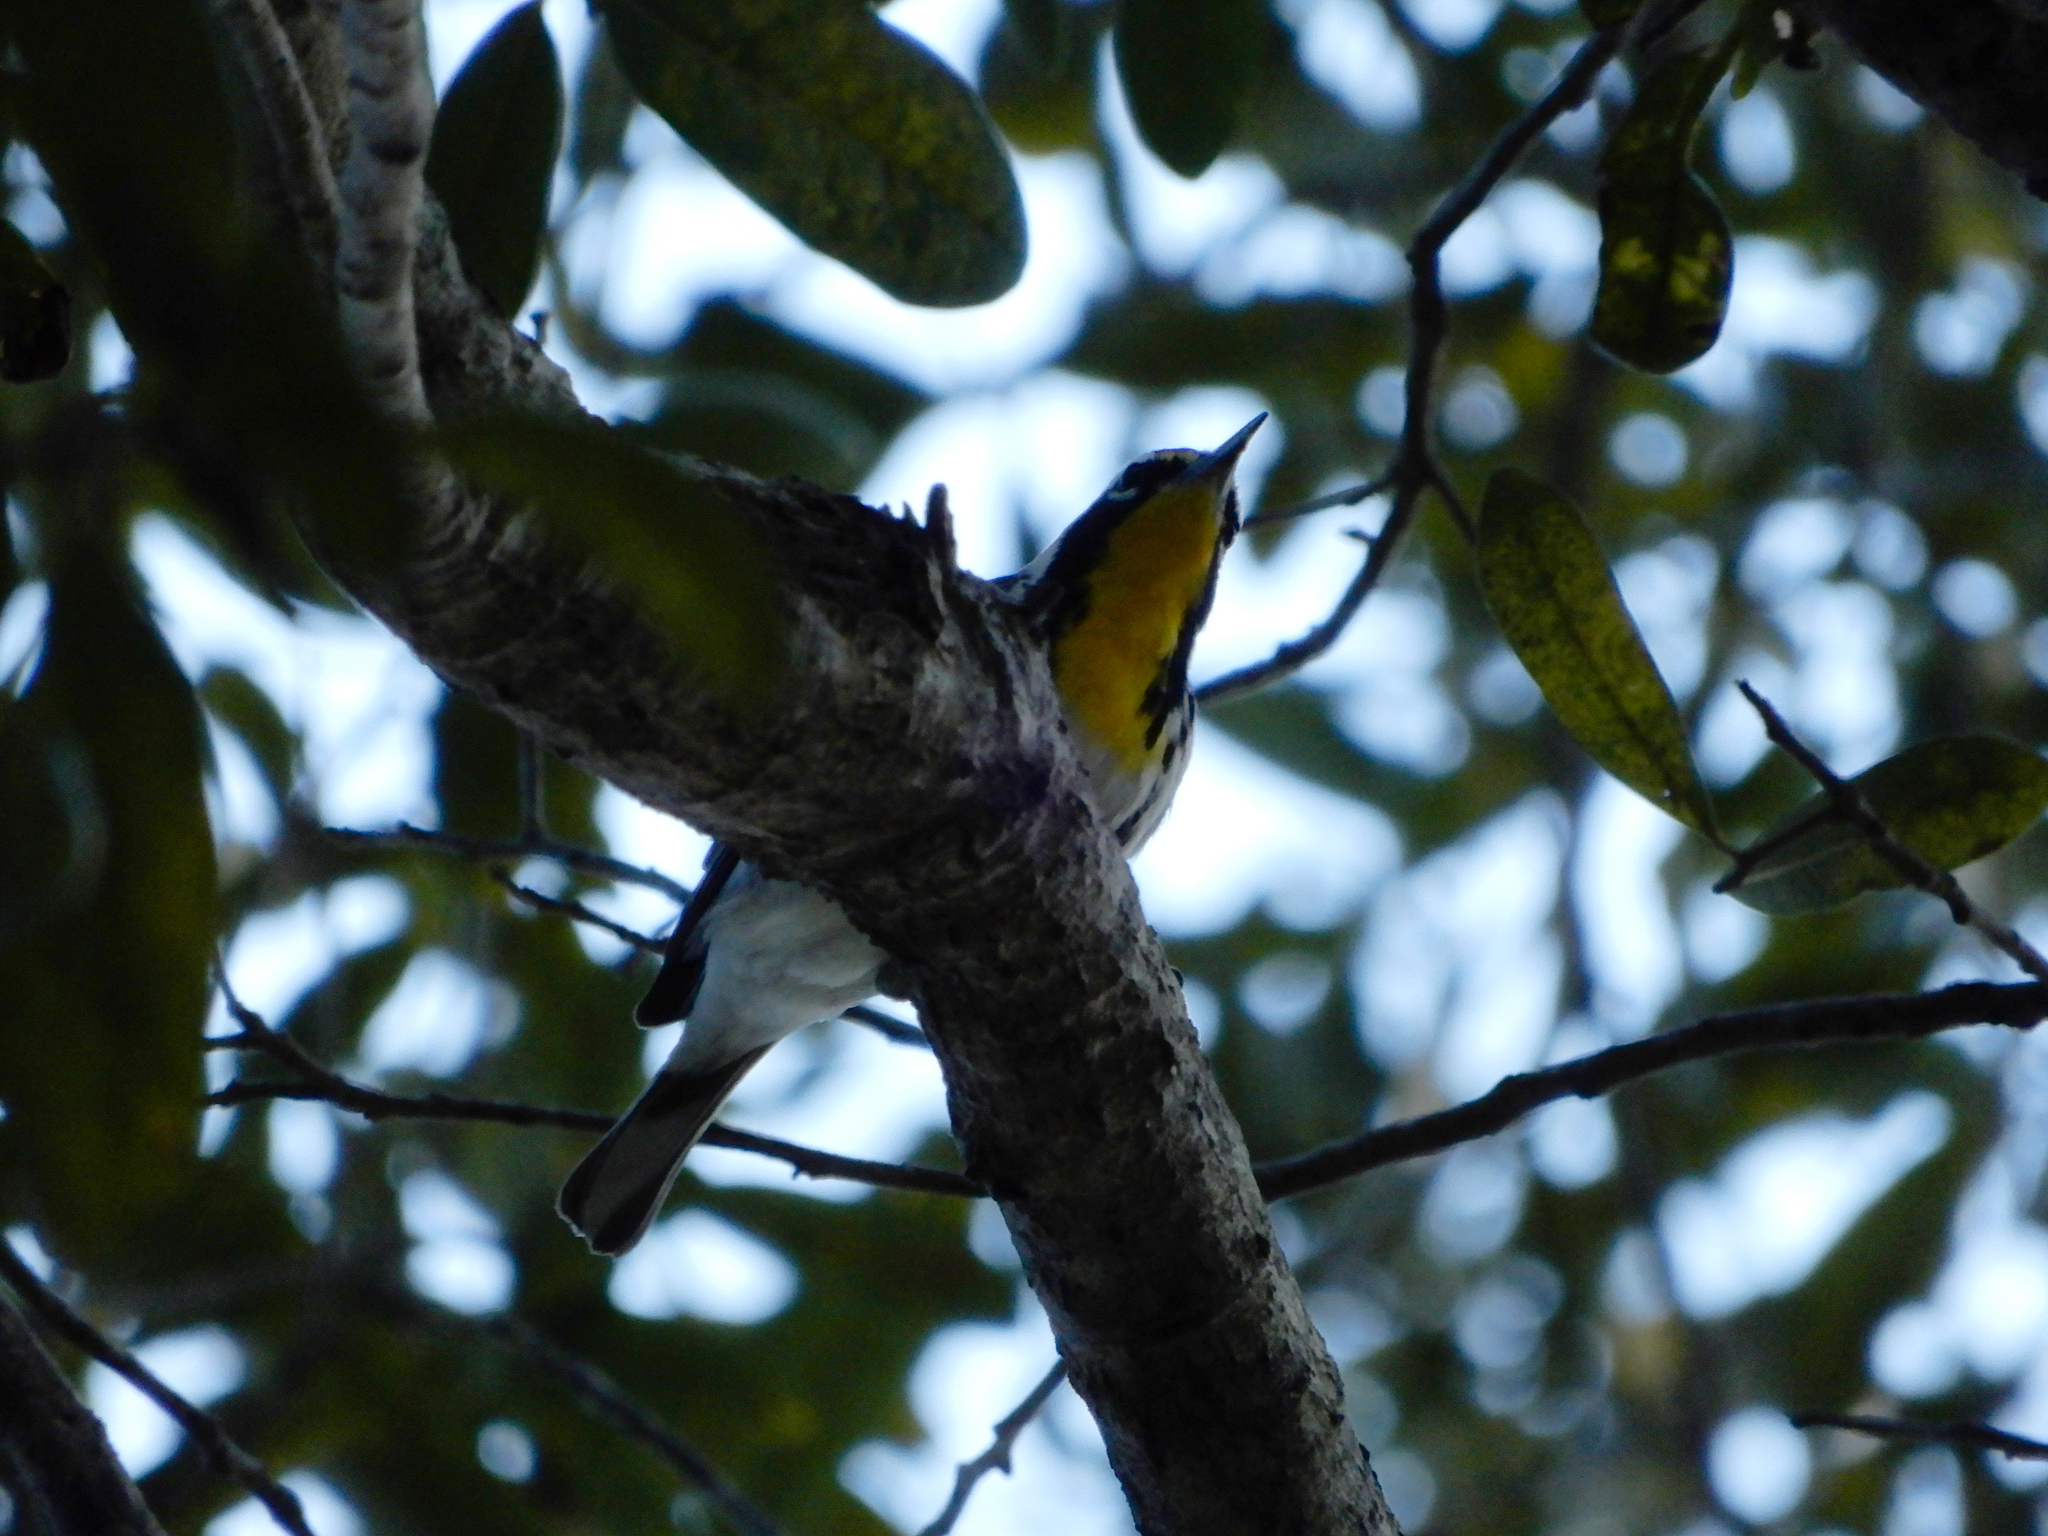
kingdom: Animalia
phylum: Chordata
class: Aves
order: Passeriformes
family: Parulidae
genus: Setophaga
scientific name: Setophaga dominica
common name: Yellow-throated warbler
